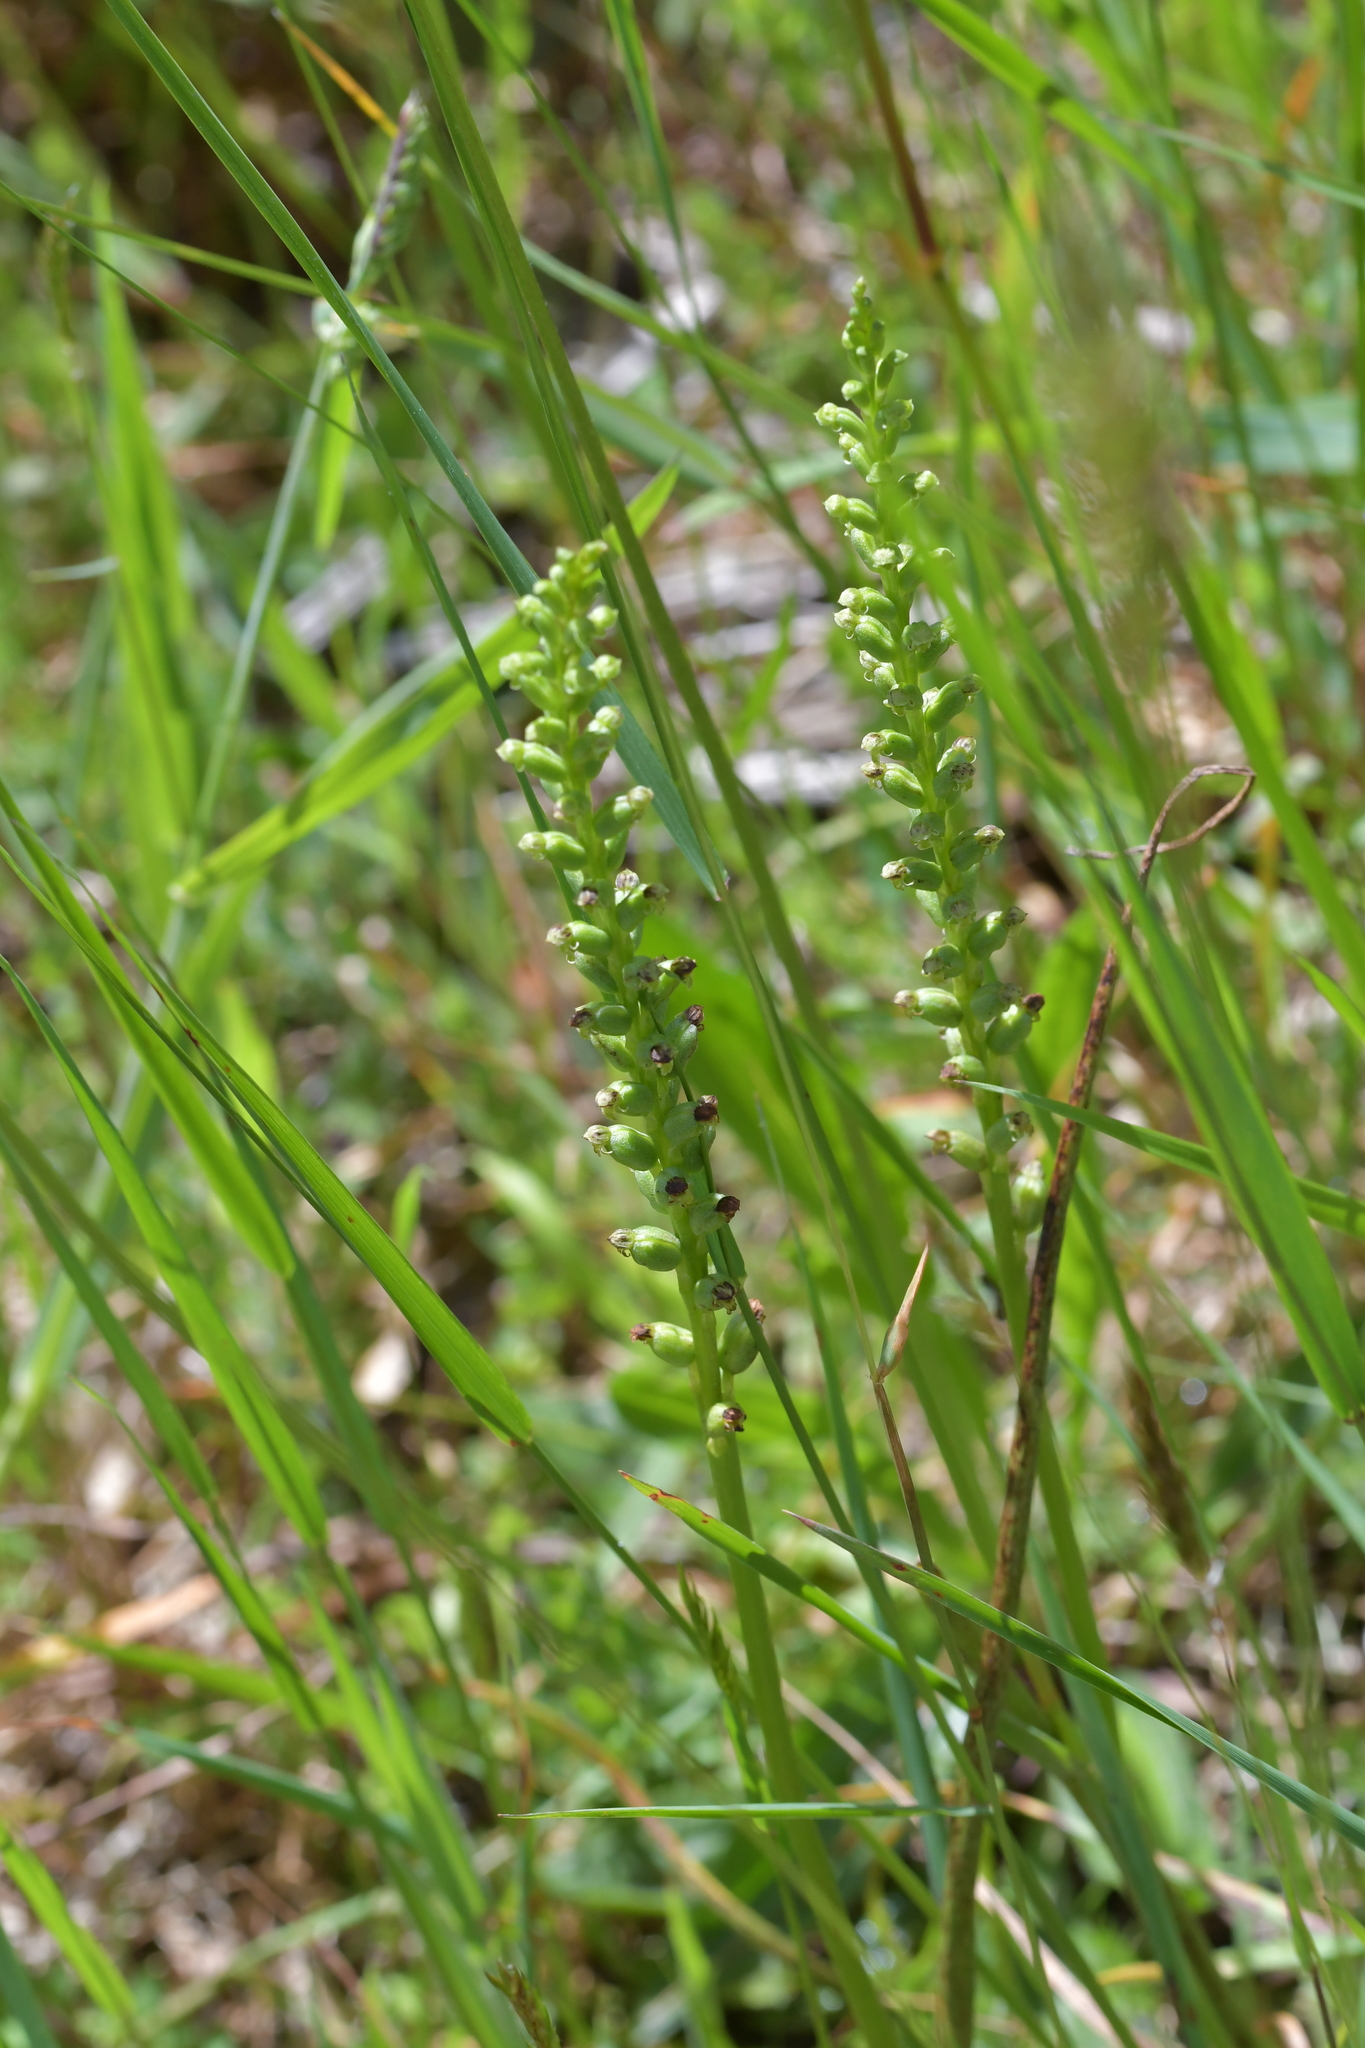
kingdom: Plantae
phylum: Tracheophyta
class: Liliopsida
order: Asparagales
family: Orchidaceae
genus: Microtis
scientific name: Microtis unifolia
